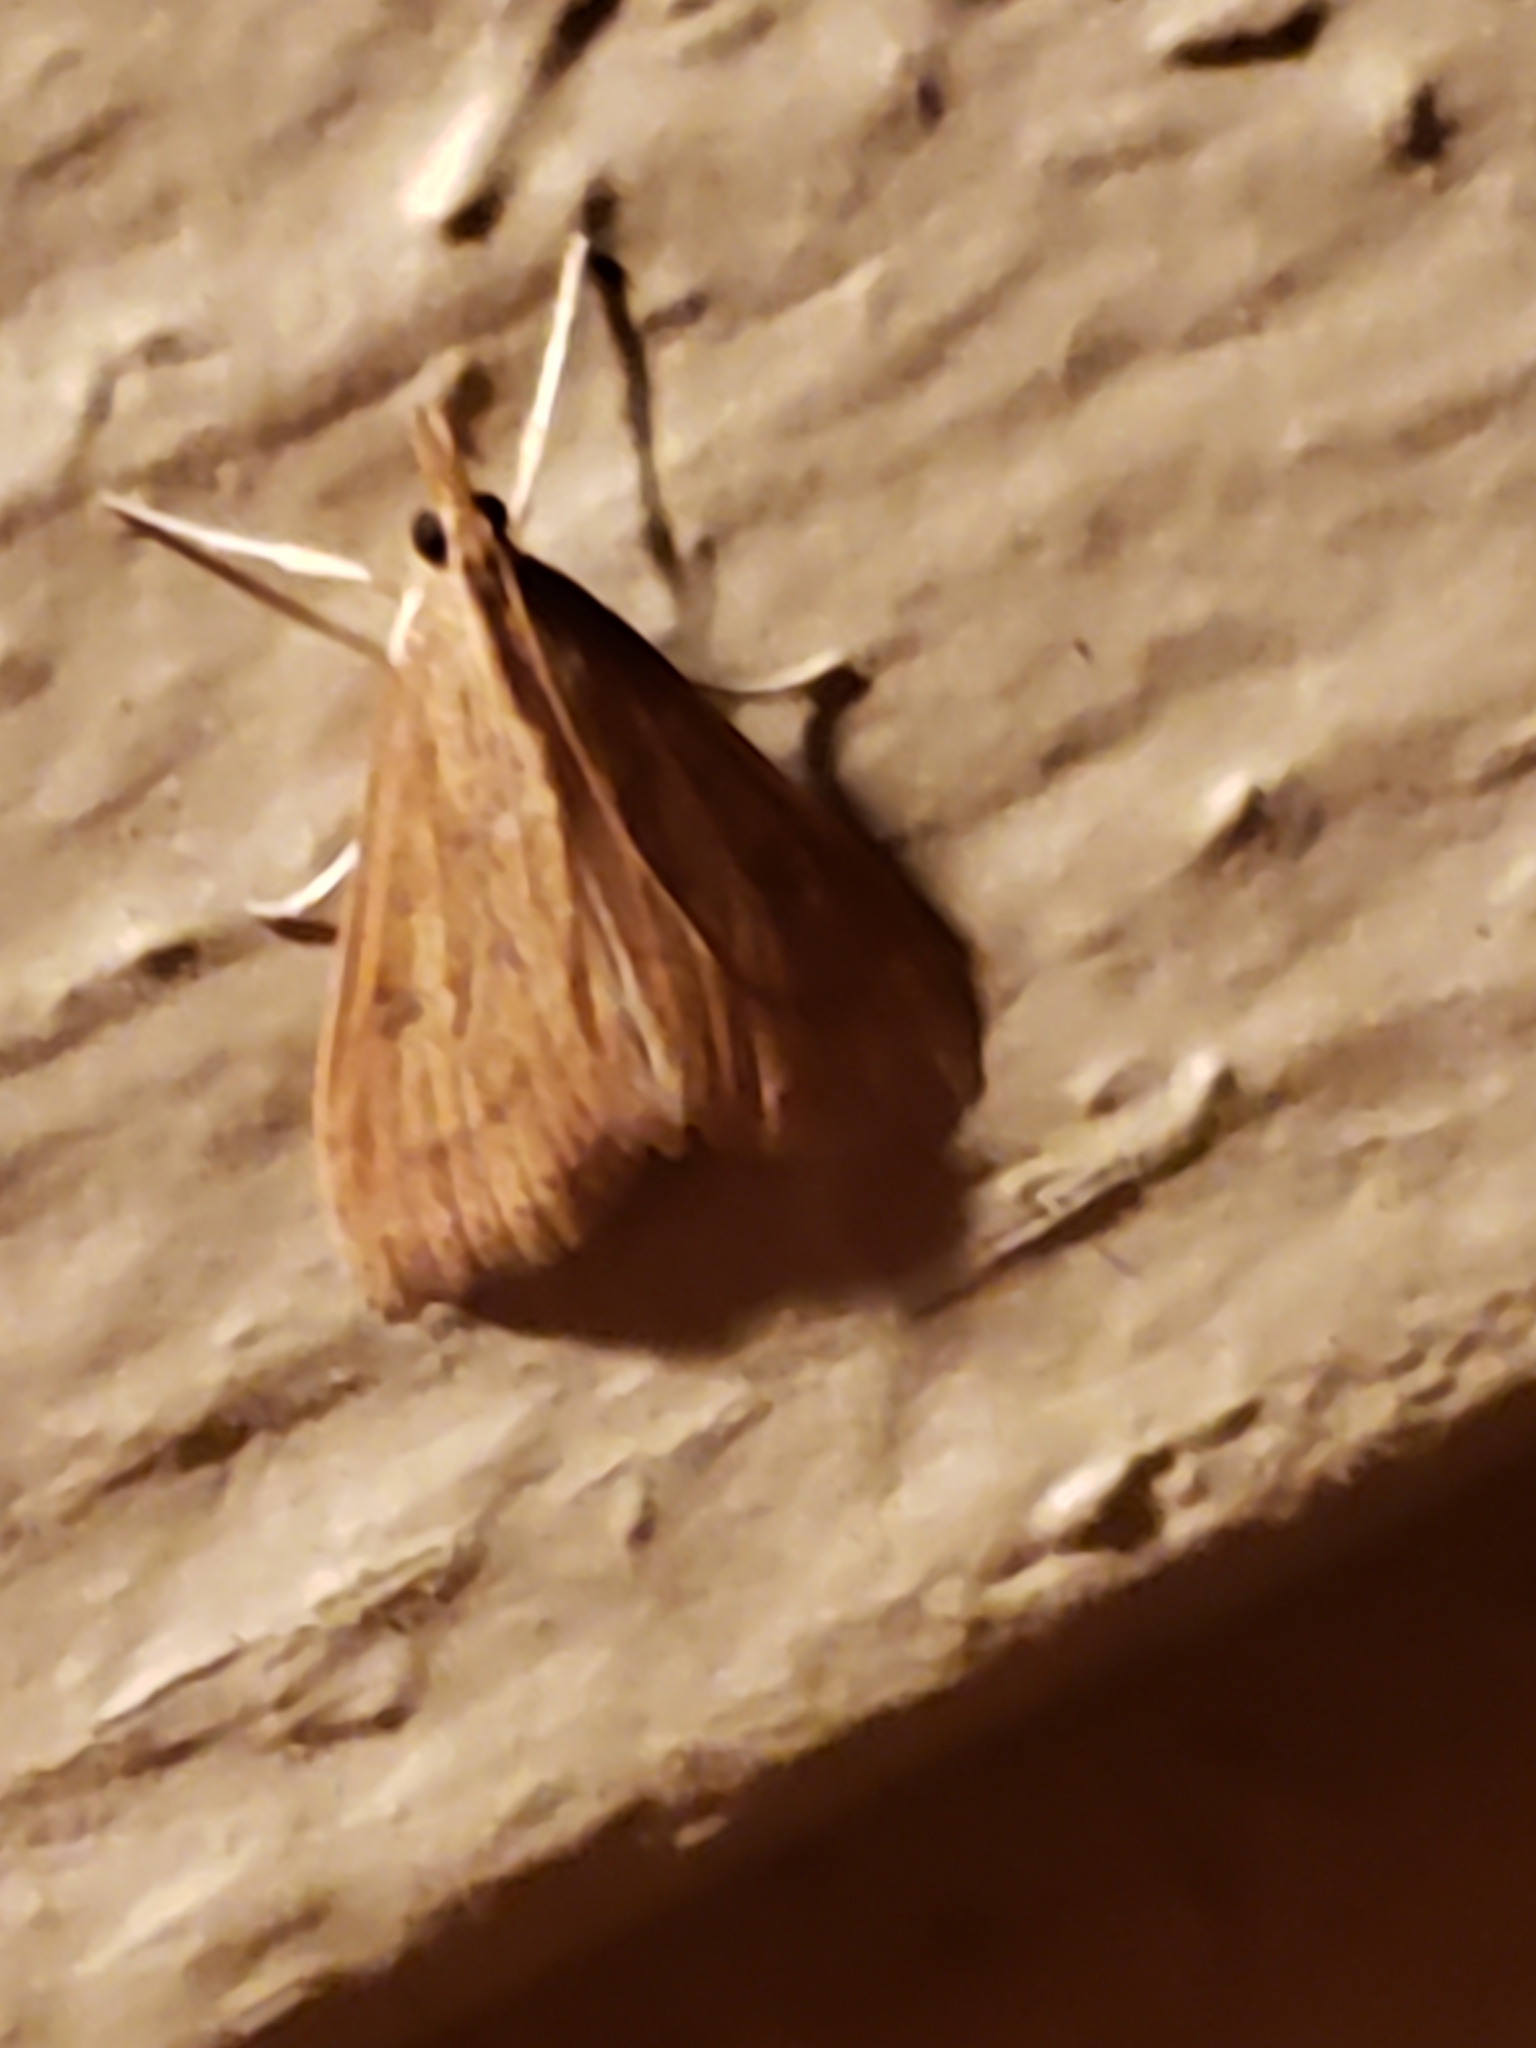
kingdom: Animalia
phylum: Arthropoda
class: Insecta
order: Lepidoptera
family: Crambidae
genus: Udea
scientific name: Udea rubigalis
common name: Celery leaftier moth
